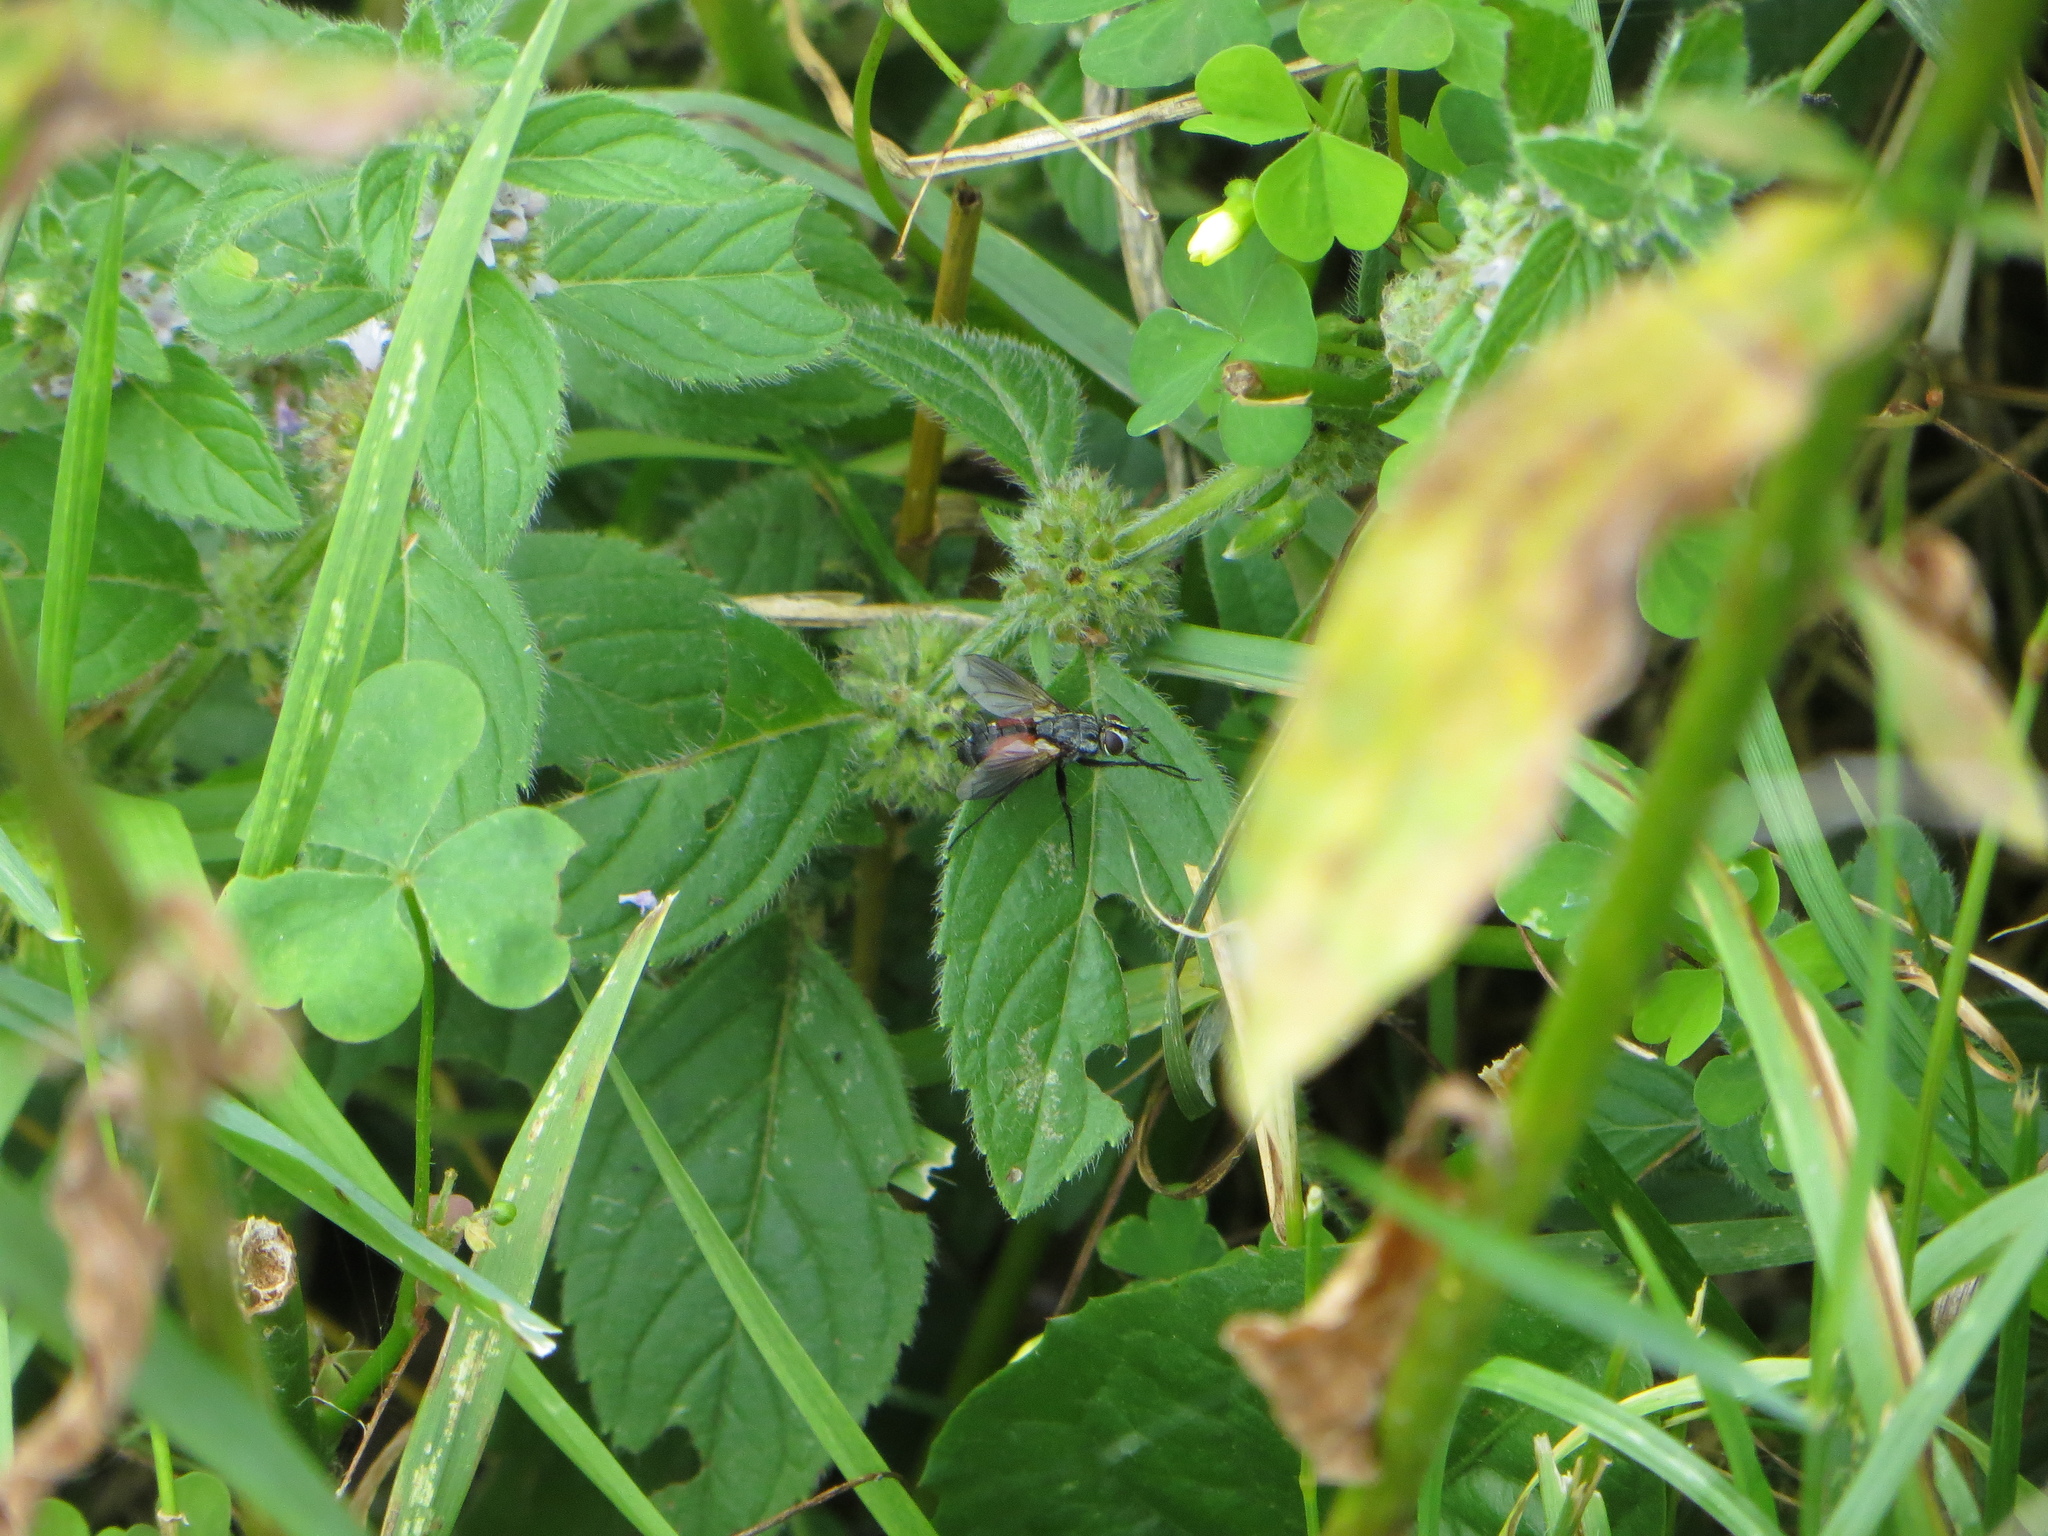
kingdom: Animalia
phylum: Arthropoda
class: Insecta
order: Diptera
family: Tachinidae
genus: Eriothrix
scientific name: Eriothrix rufomaculatus
